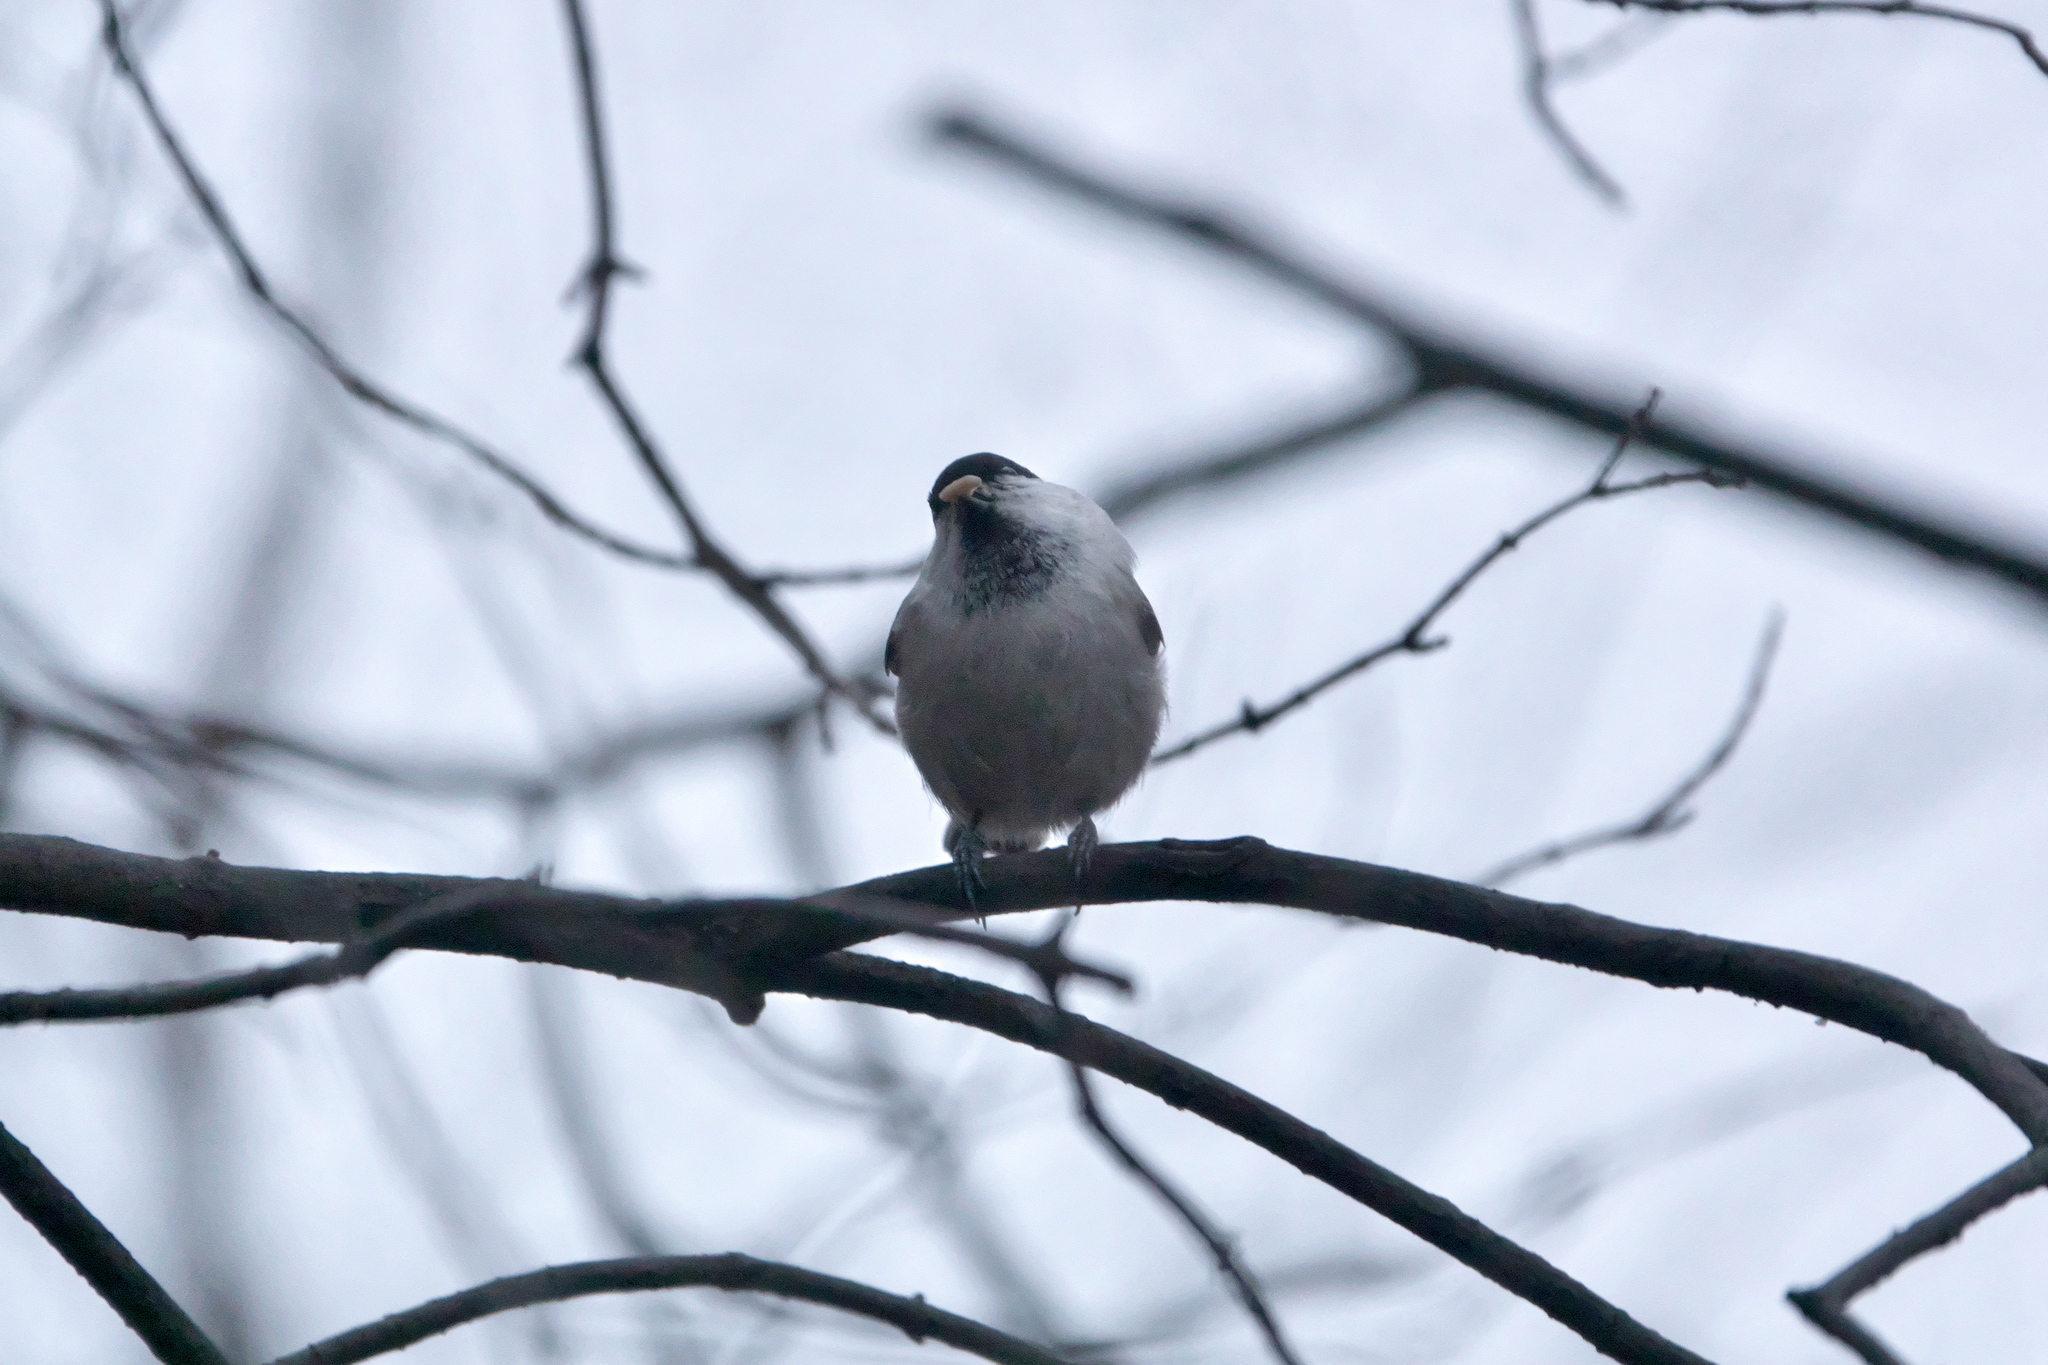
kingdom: Animalia
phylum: Chordata
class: Aves
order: Passeriformes
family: Paridae
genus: Poecile
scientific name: Poecile montanus
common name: Willow tit
